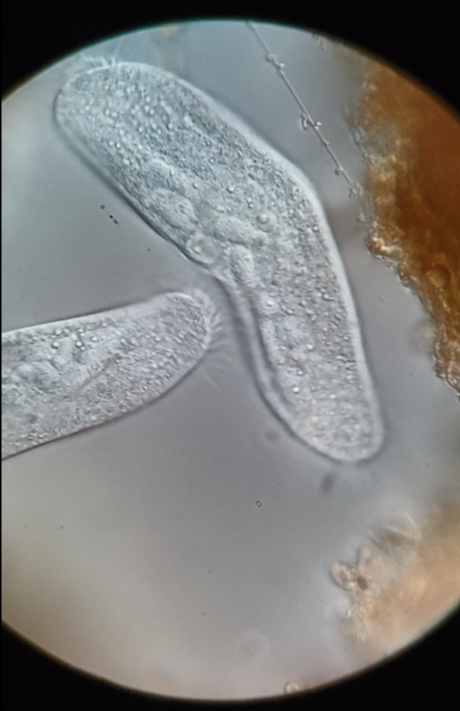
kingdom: Chromista
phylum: Ciliophora
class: Hypotrichea
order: Urostylida
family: Holostichidae
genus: Anteholosticha
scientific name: Anteholosticha monilata
